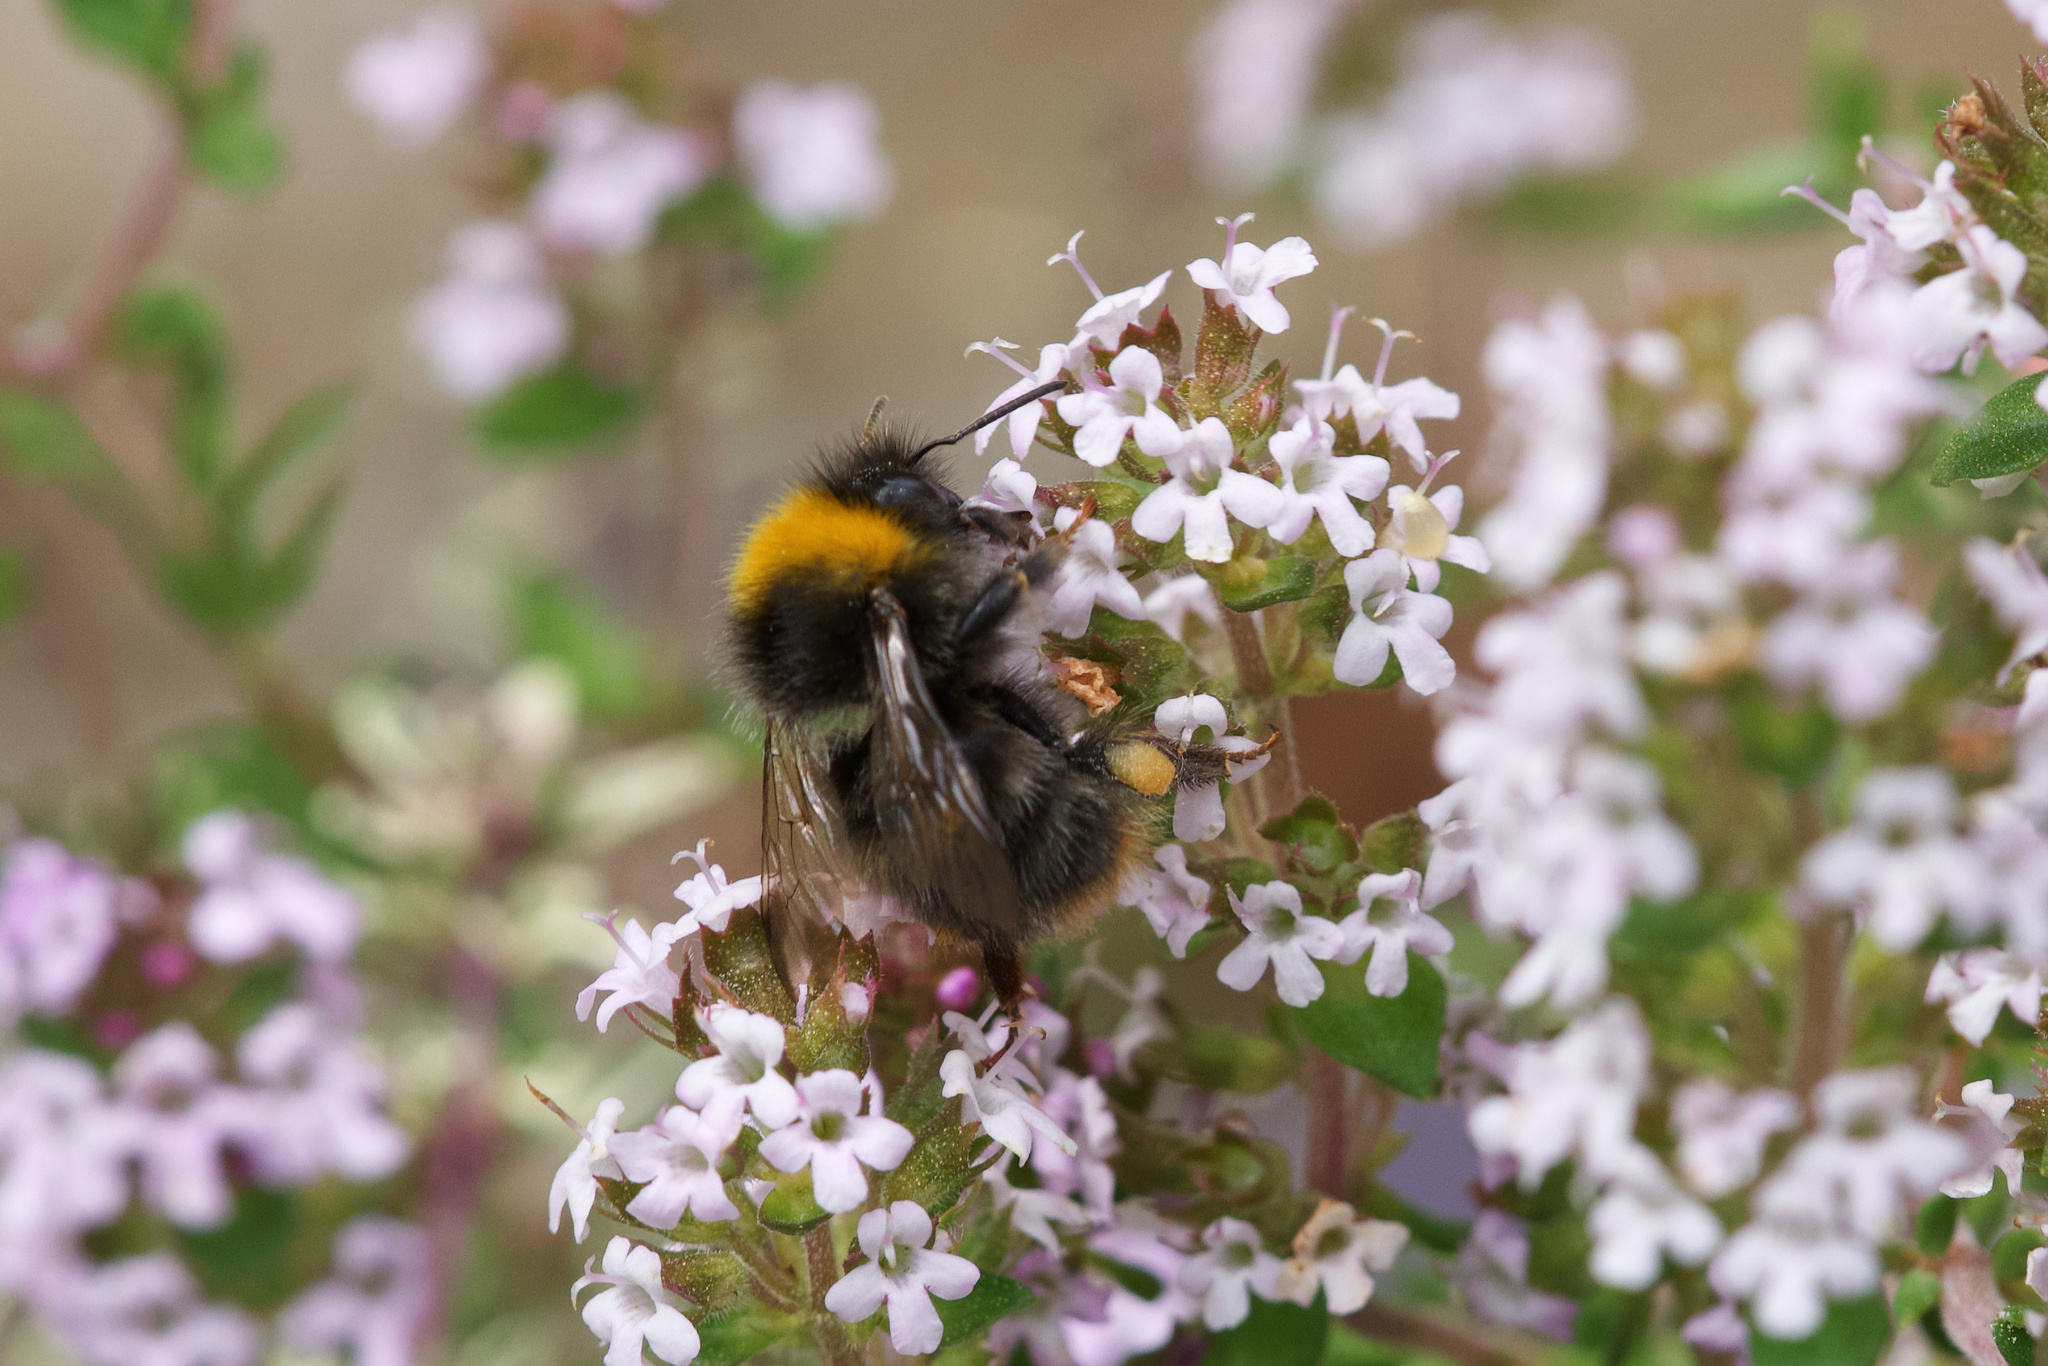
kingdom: Animalia
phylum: Arthropoda
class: Insecta
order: Hymenoptera
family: Apidae
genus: Bombus
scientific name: Bombus pratorum
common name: Early humble-bee
